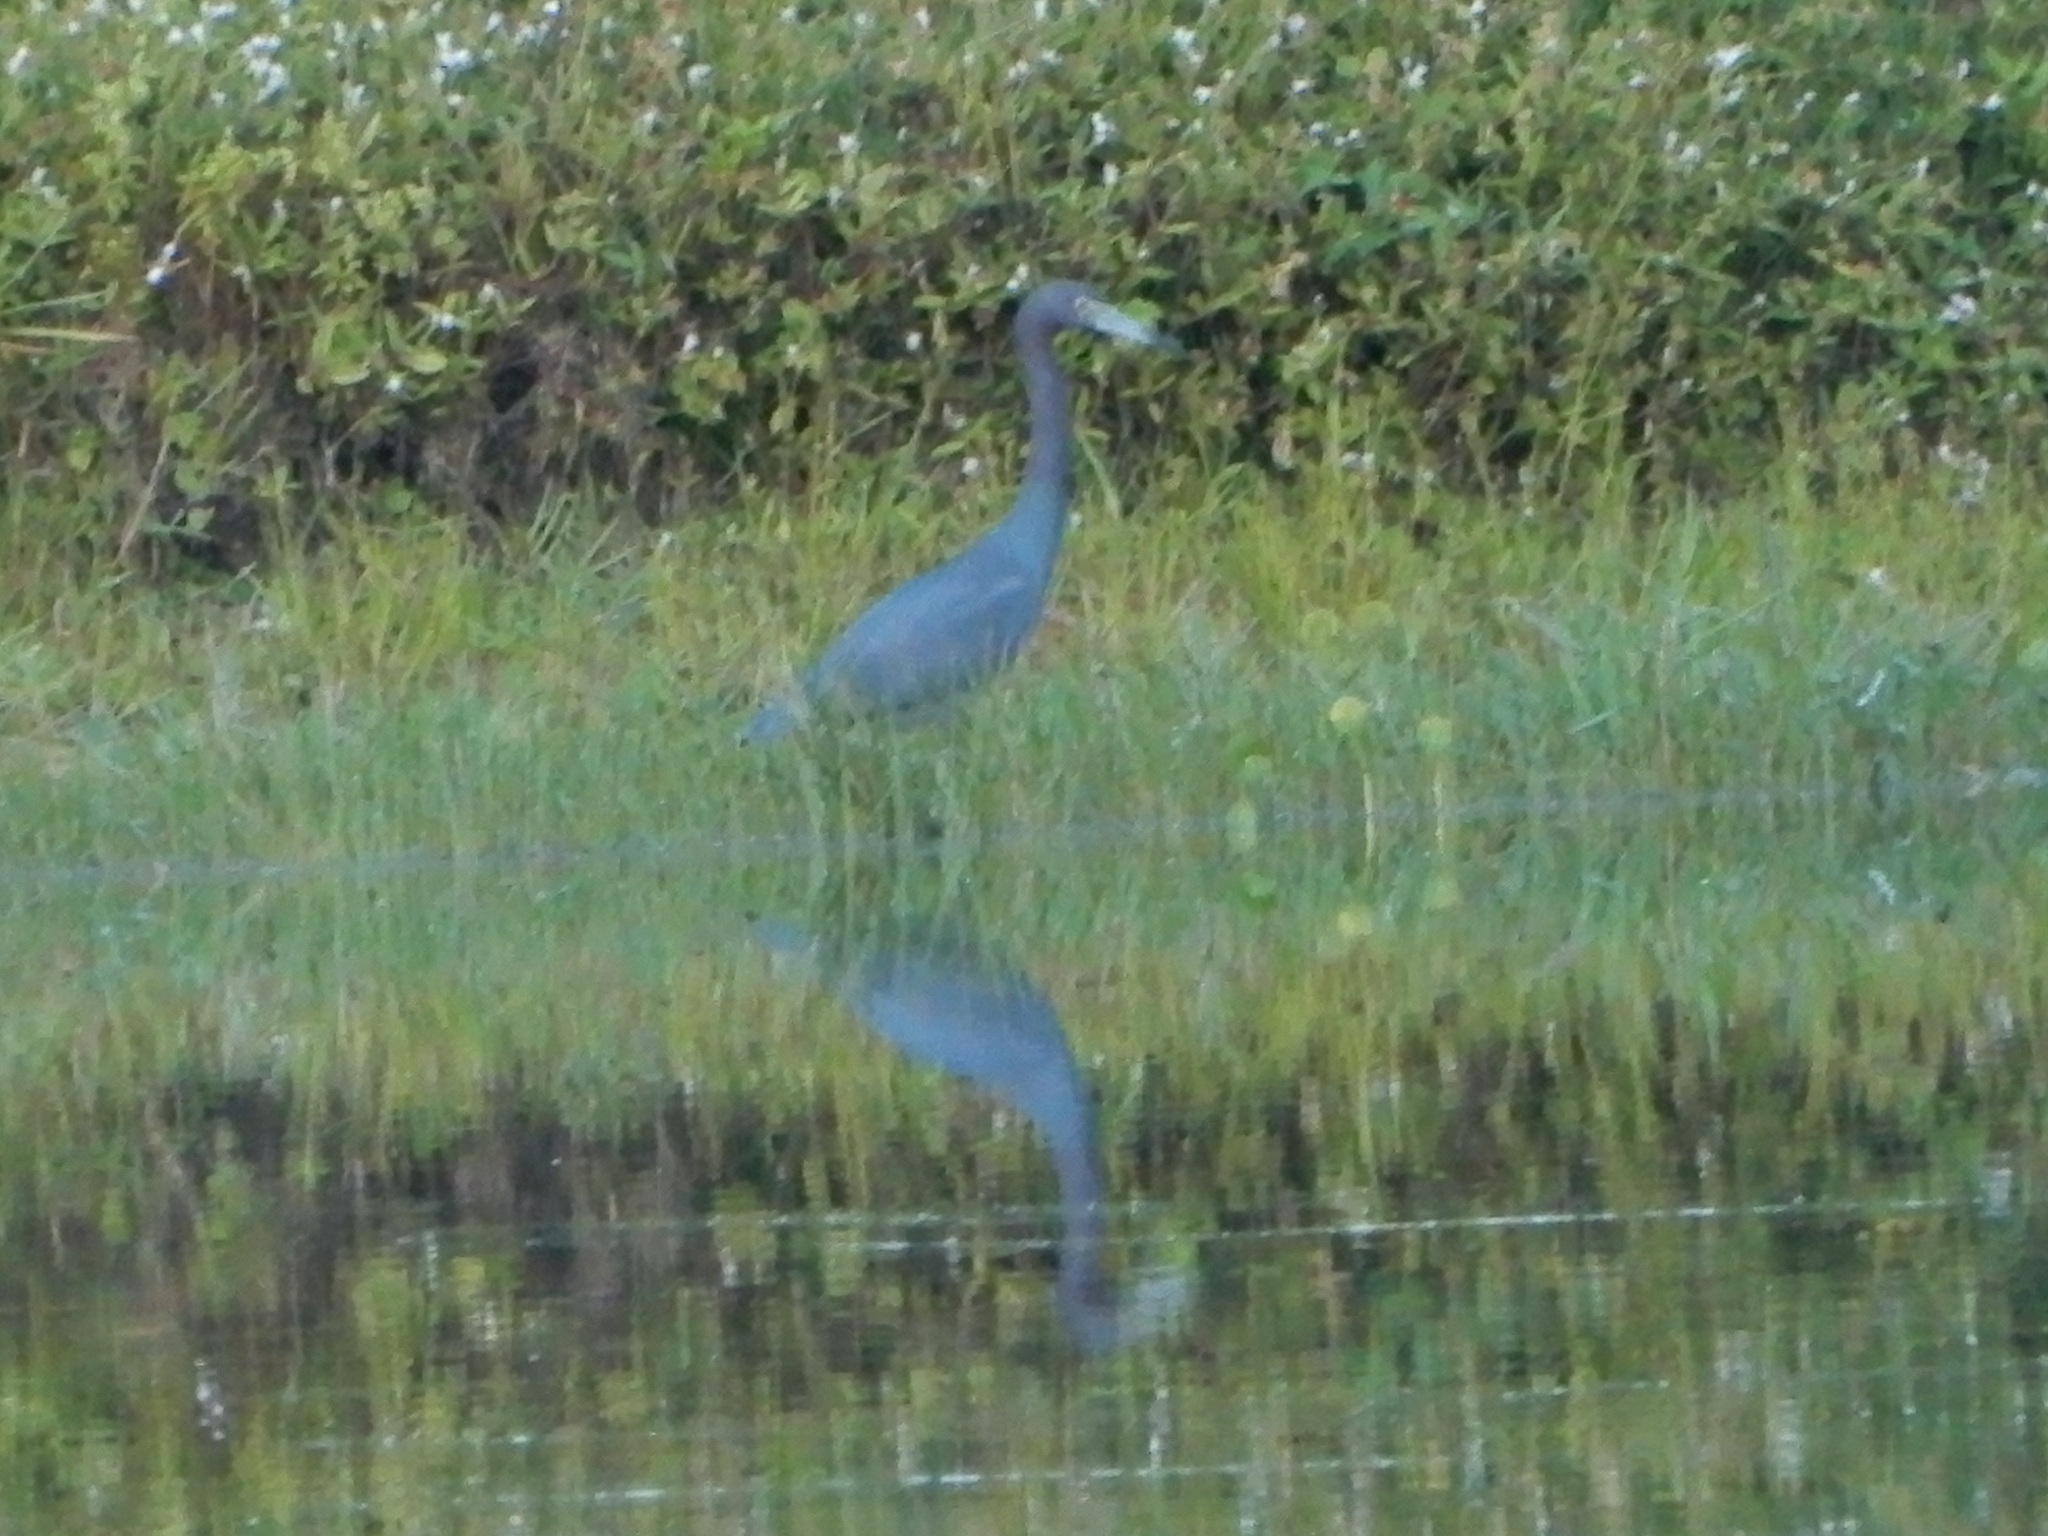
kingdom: Animalia
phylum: Chordata
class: Aves
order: Pelecaniformes
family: Ardeidae
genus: Egretta
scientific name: Egretta caerulea
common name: Little blue heron
